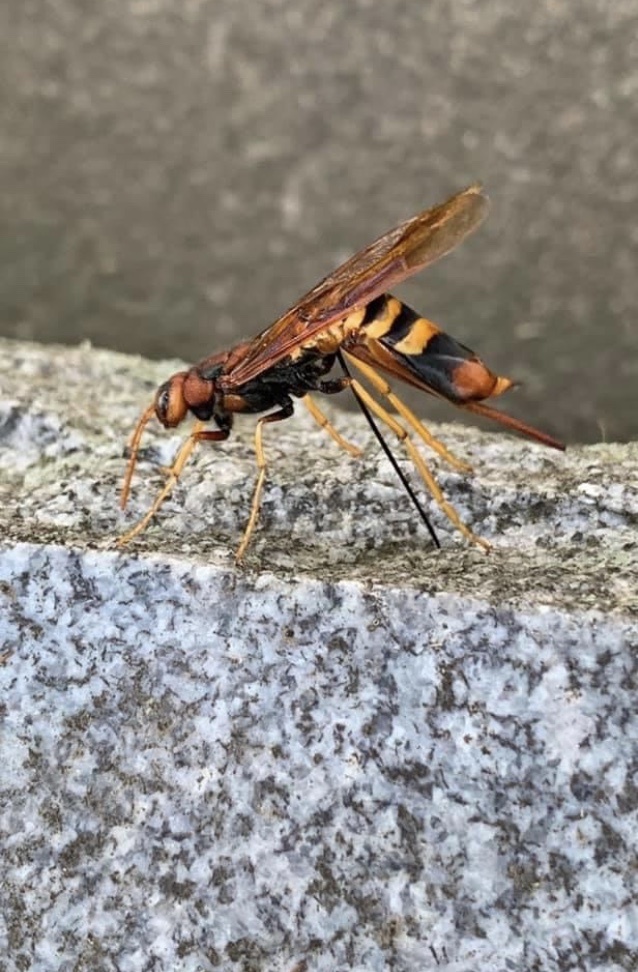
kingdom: Animalia
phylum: Arthropoda
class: Insecta
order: Hymenoptera
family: Siricidae
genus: Tremex
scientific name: Tremex columba
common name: Wasp
